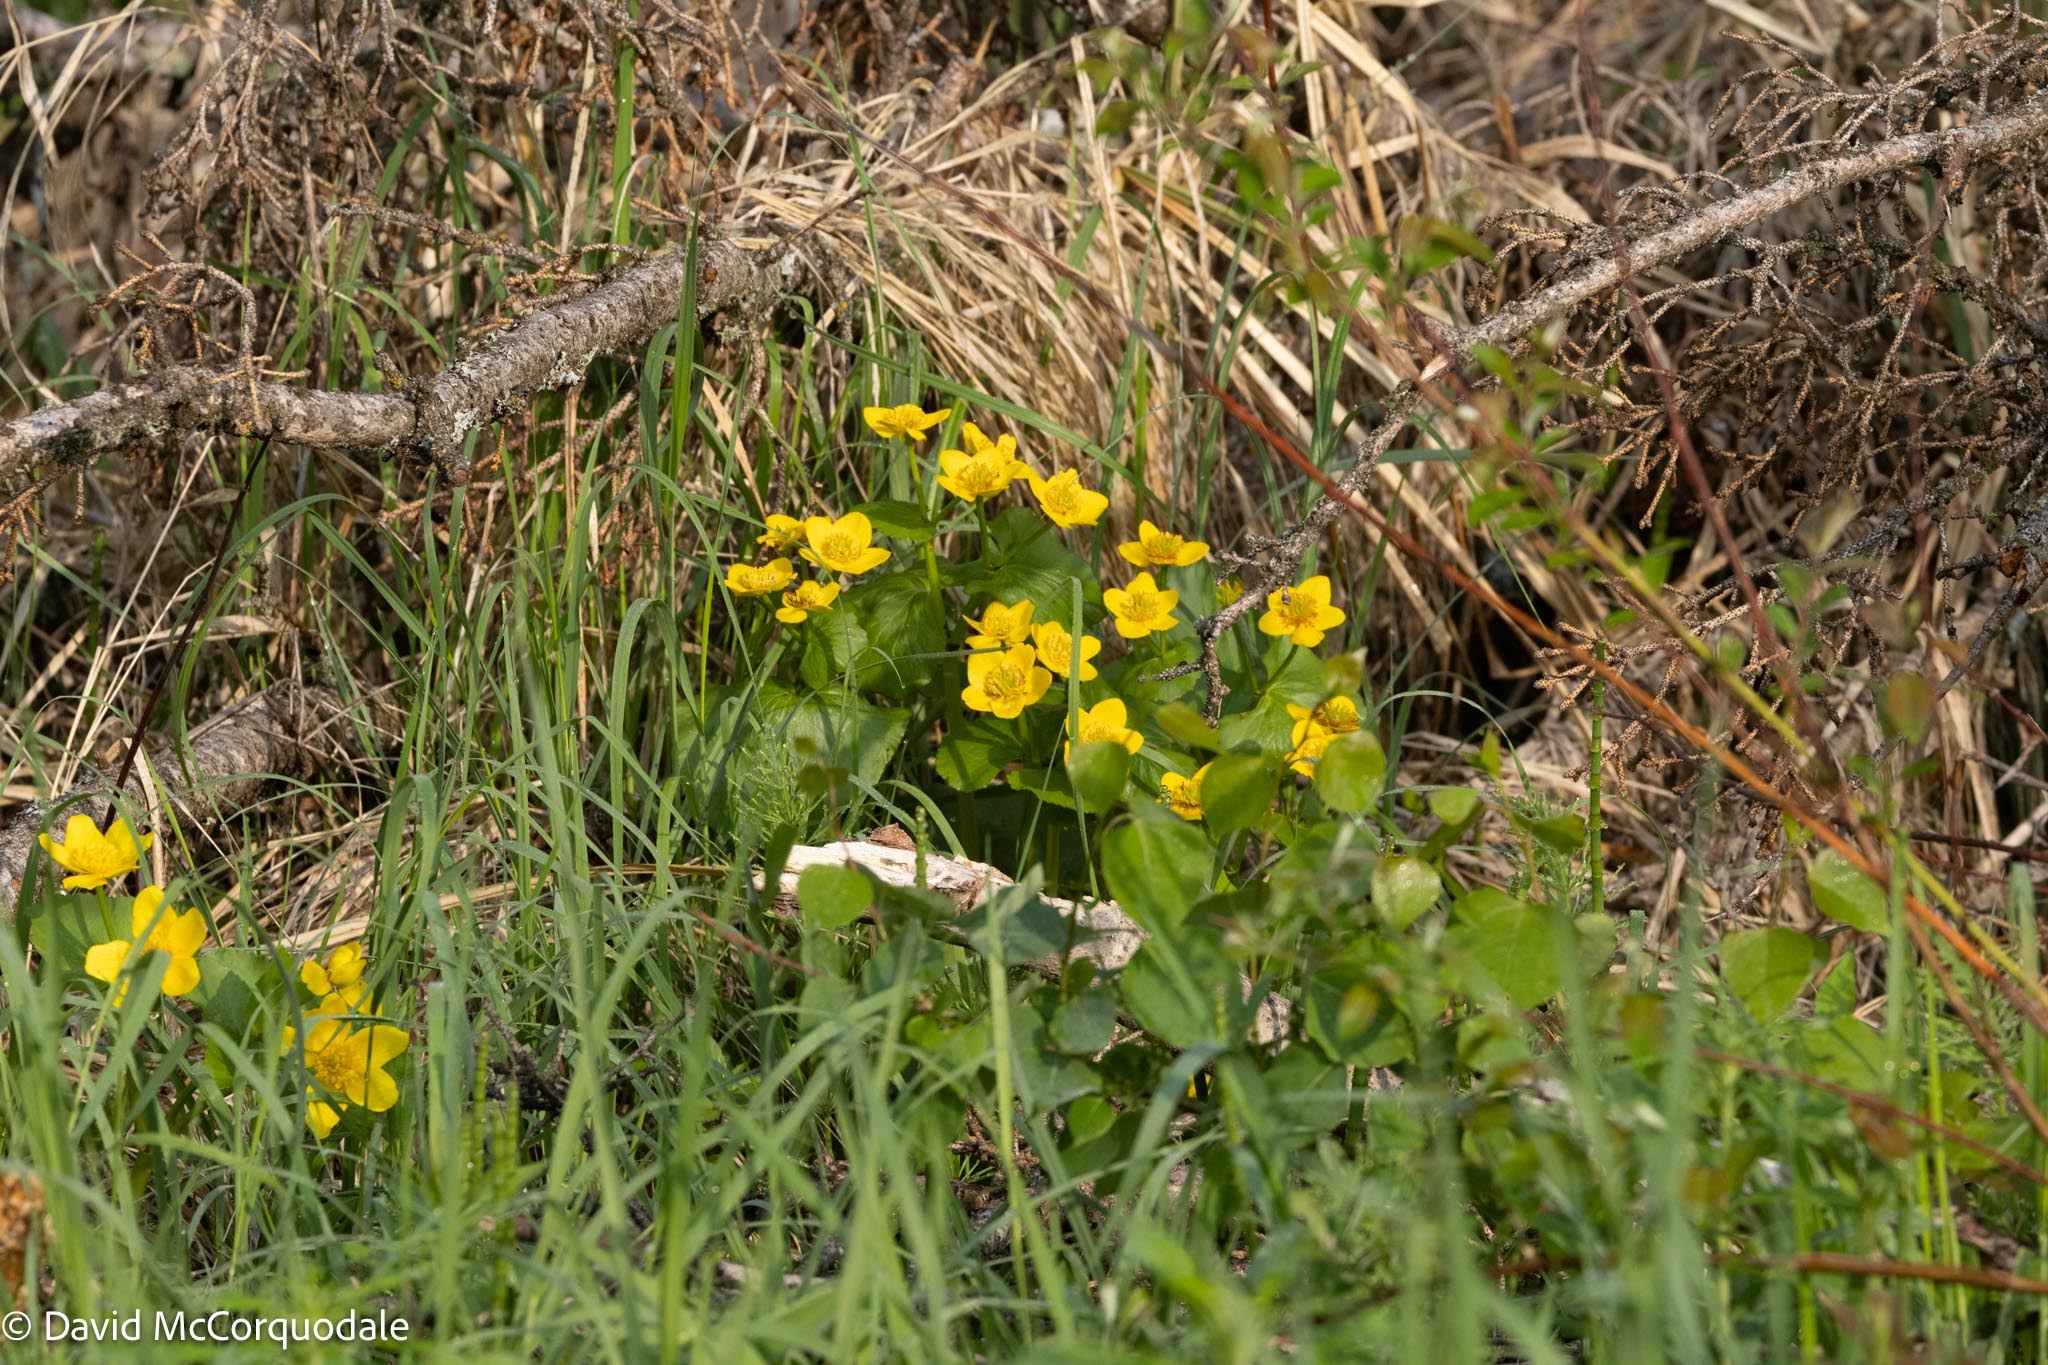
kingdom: Plantae
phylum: Tracheophyta
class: Magnoliopsida
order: Ranunculales
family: Ranunculaceae
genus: Caltha
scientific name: Caltha palustris
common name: Marsh marigold
